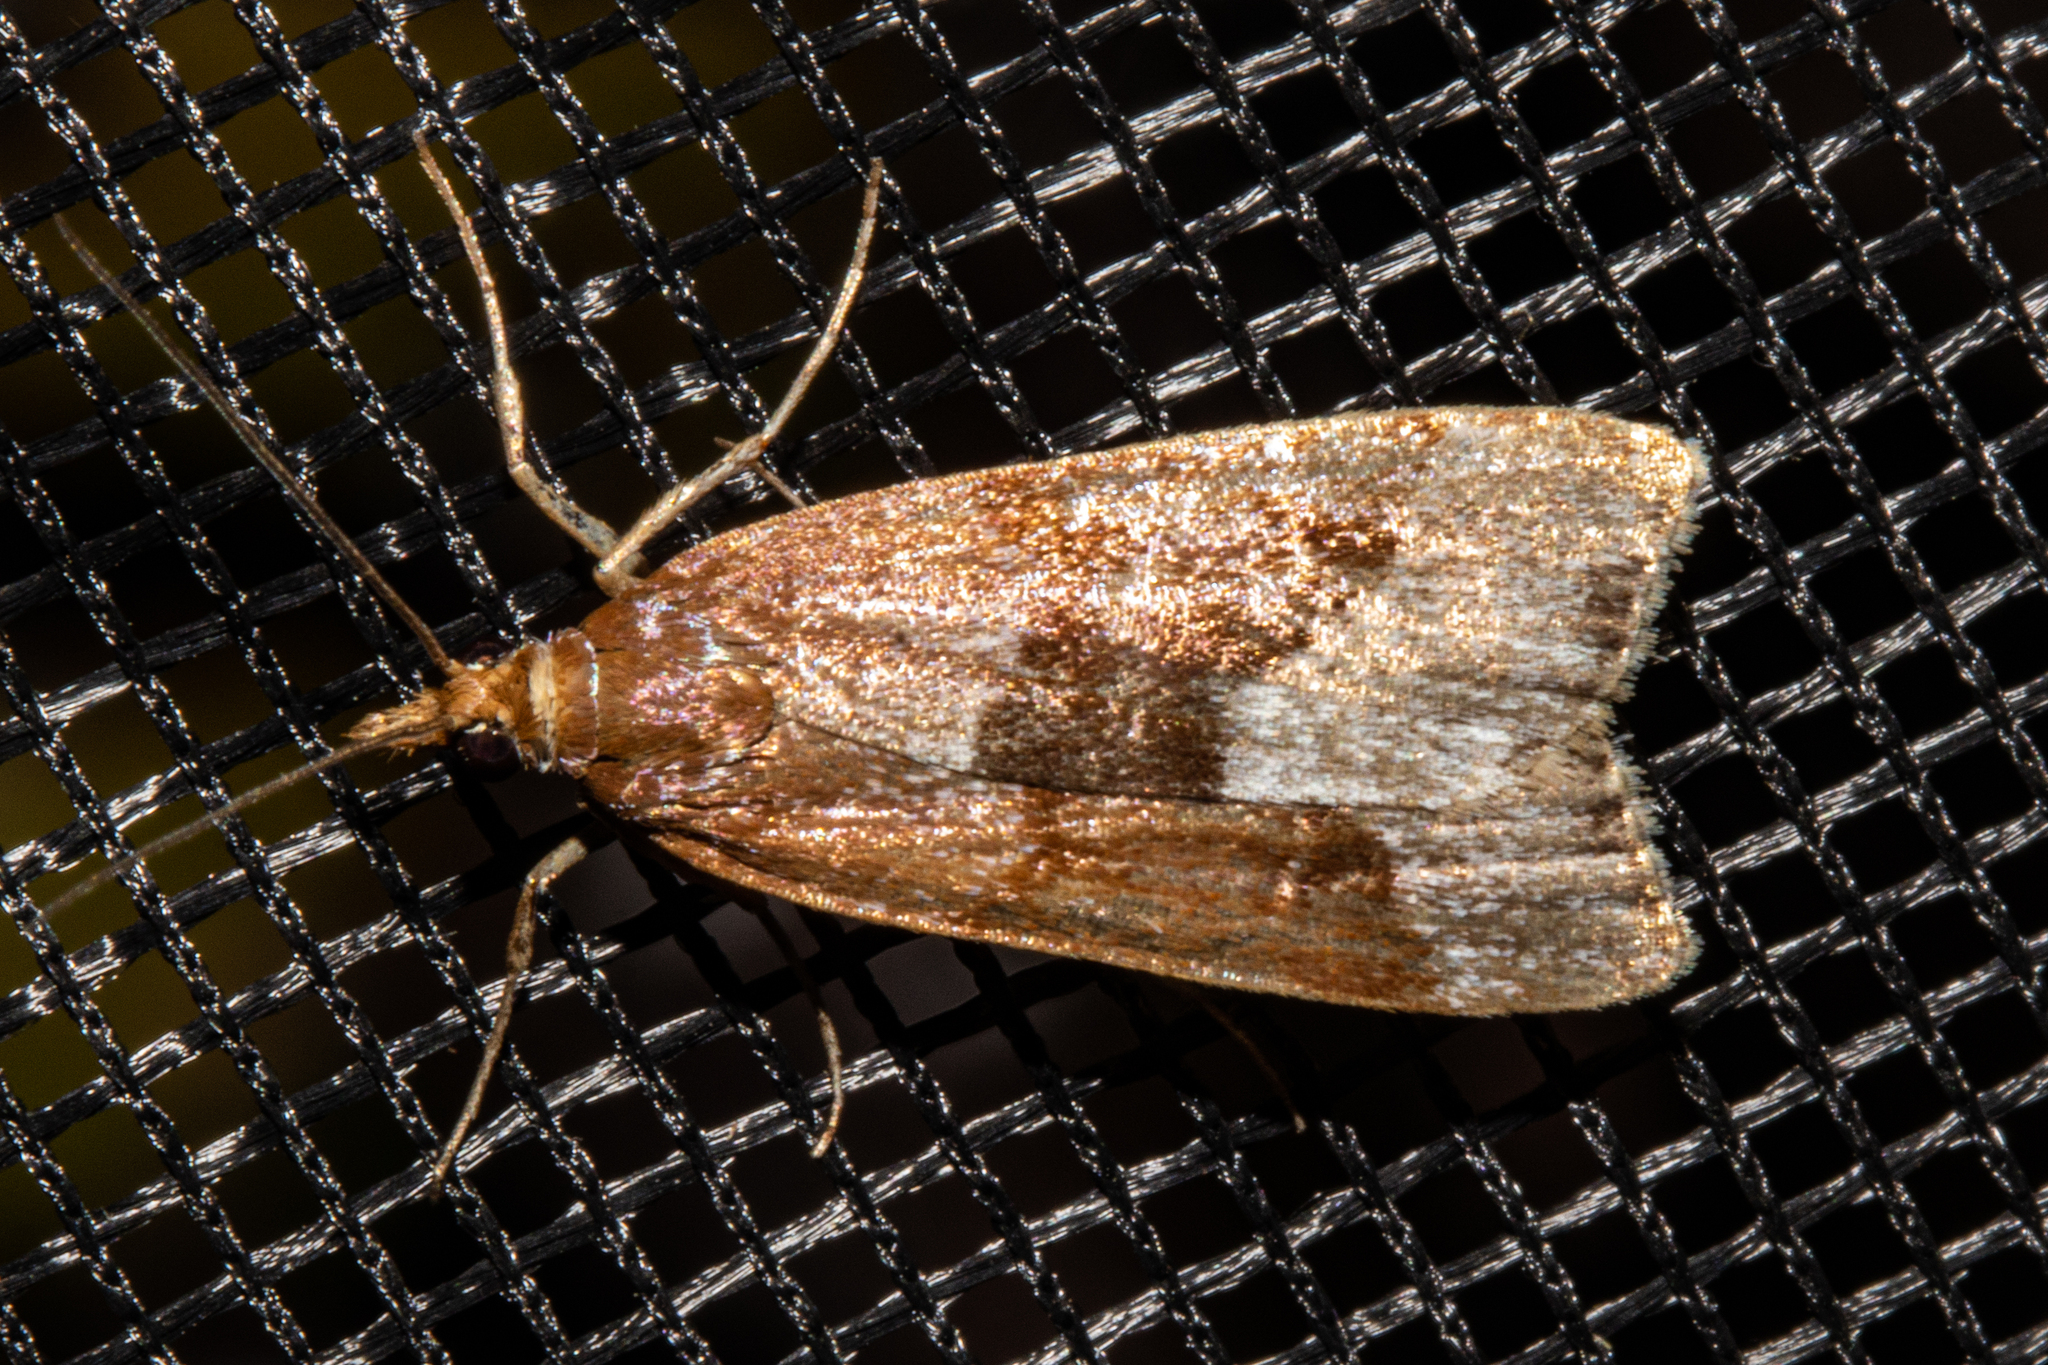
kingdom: Animalia
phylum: Arthropoda
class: Insecta
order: Lepidoptera
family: Crambidae
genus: Eudonia
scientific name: Eudonia feredayi
